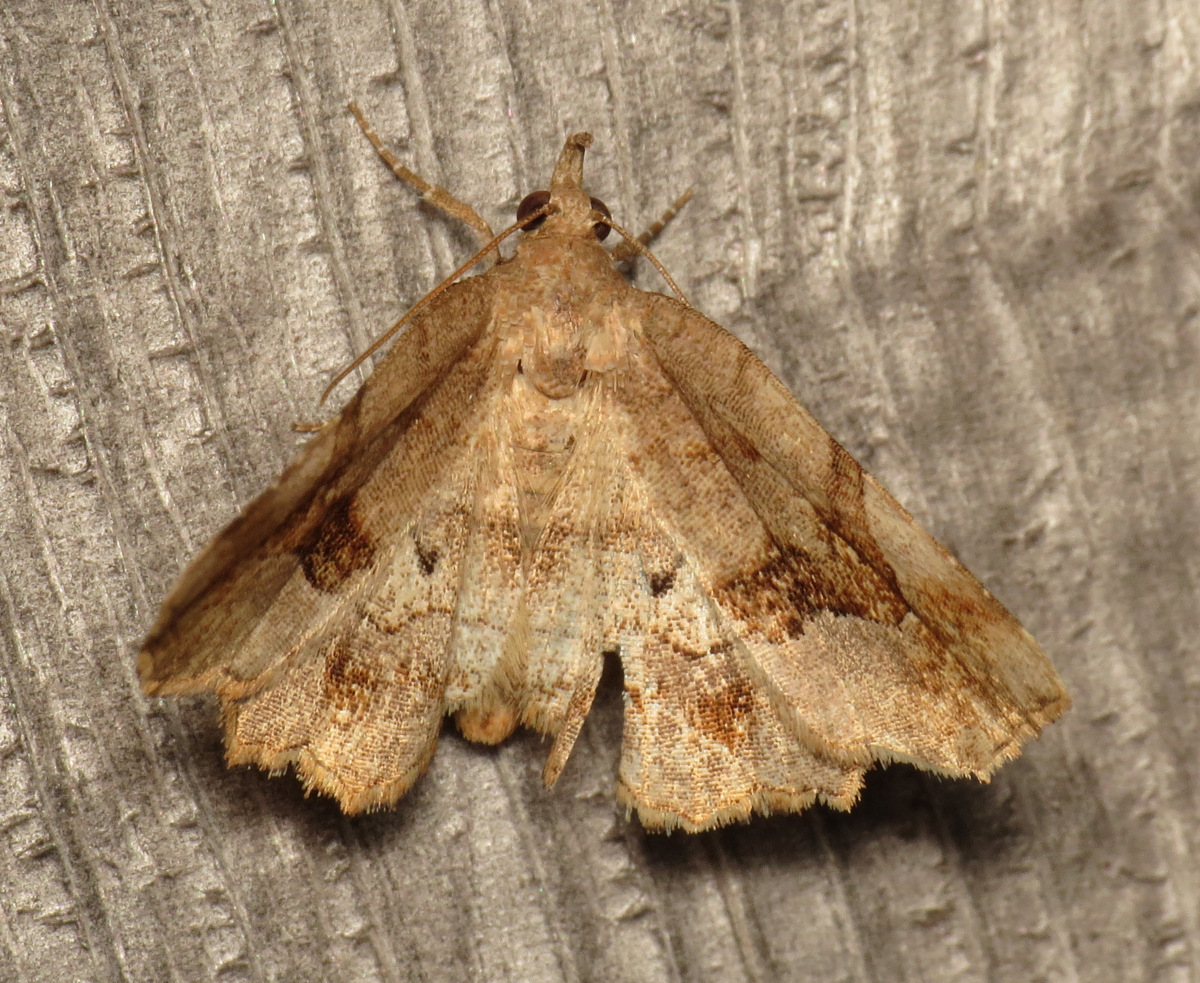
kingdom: Animalia
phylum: Arthropoda
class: Insecta
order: Lepidoptera
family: Erebidae
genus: Pangrapta
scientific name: Pangrapta decoralis
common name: Decorated owlet
